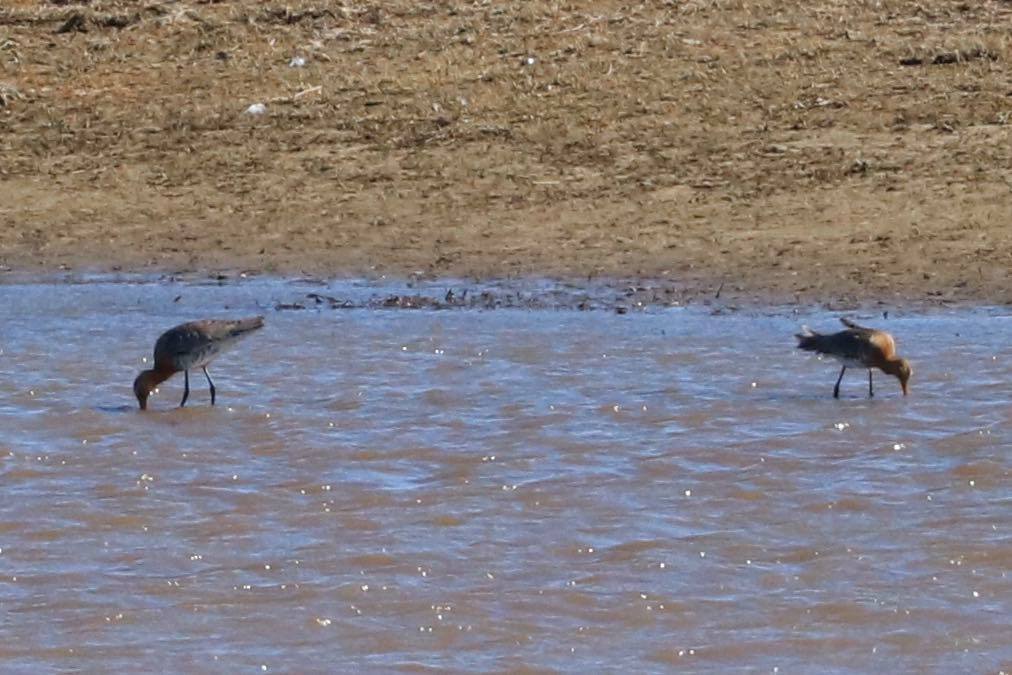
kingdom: Animalia
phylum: Chordata
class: Aves
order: Charadriiformes
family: Scolopacidae
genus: Limosa
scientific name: Limosa limosa
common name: Black-tailed godwit
